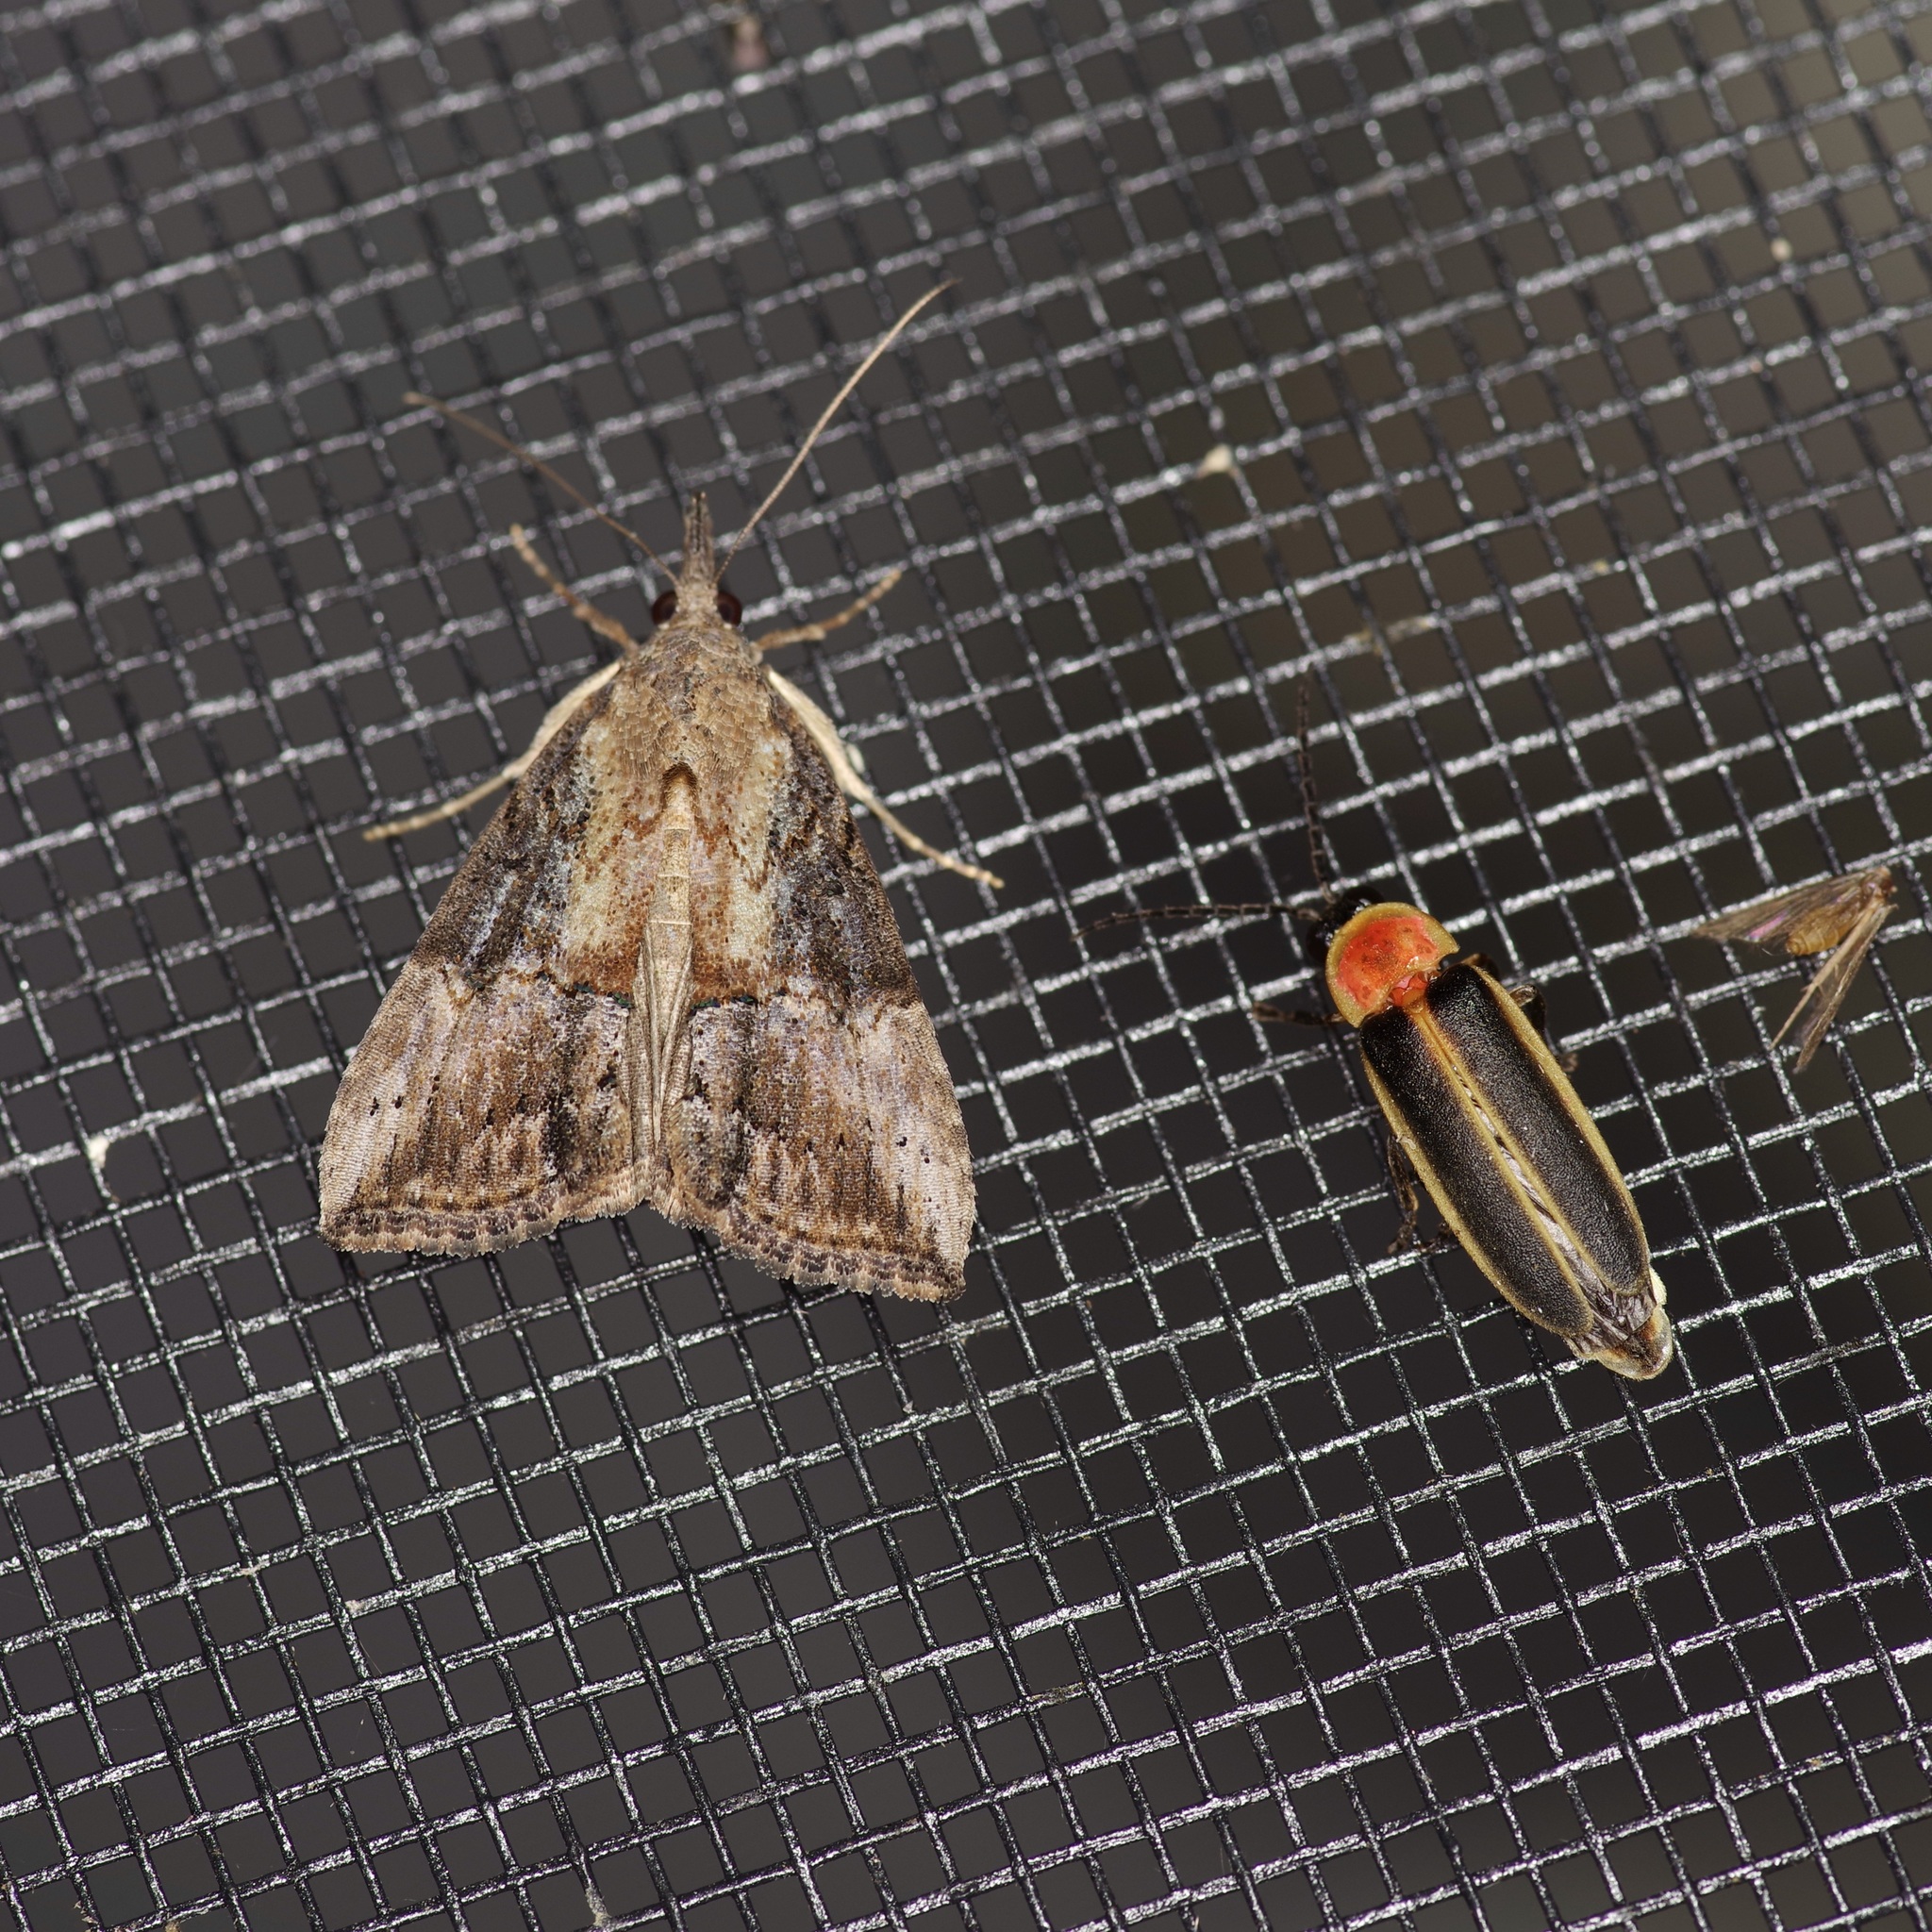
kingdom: Animalia
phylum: Arthropoda
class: Insecta
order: Lepidoptera
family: Erebidae
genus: Hypena
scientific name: Hypena scabra
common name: Green cloverworm
